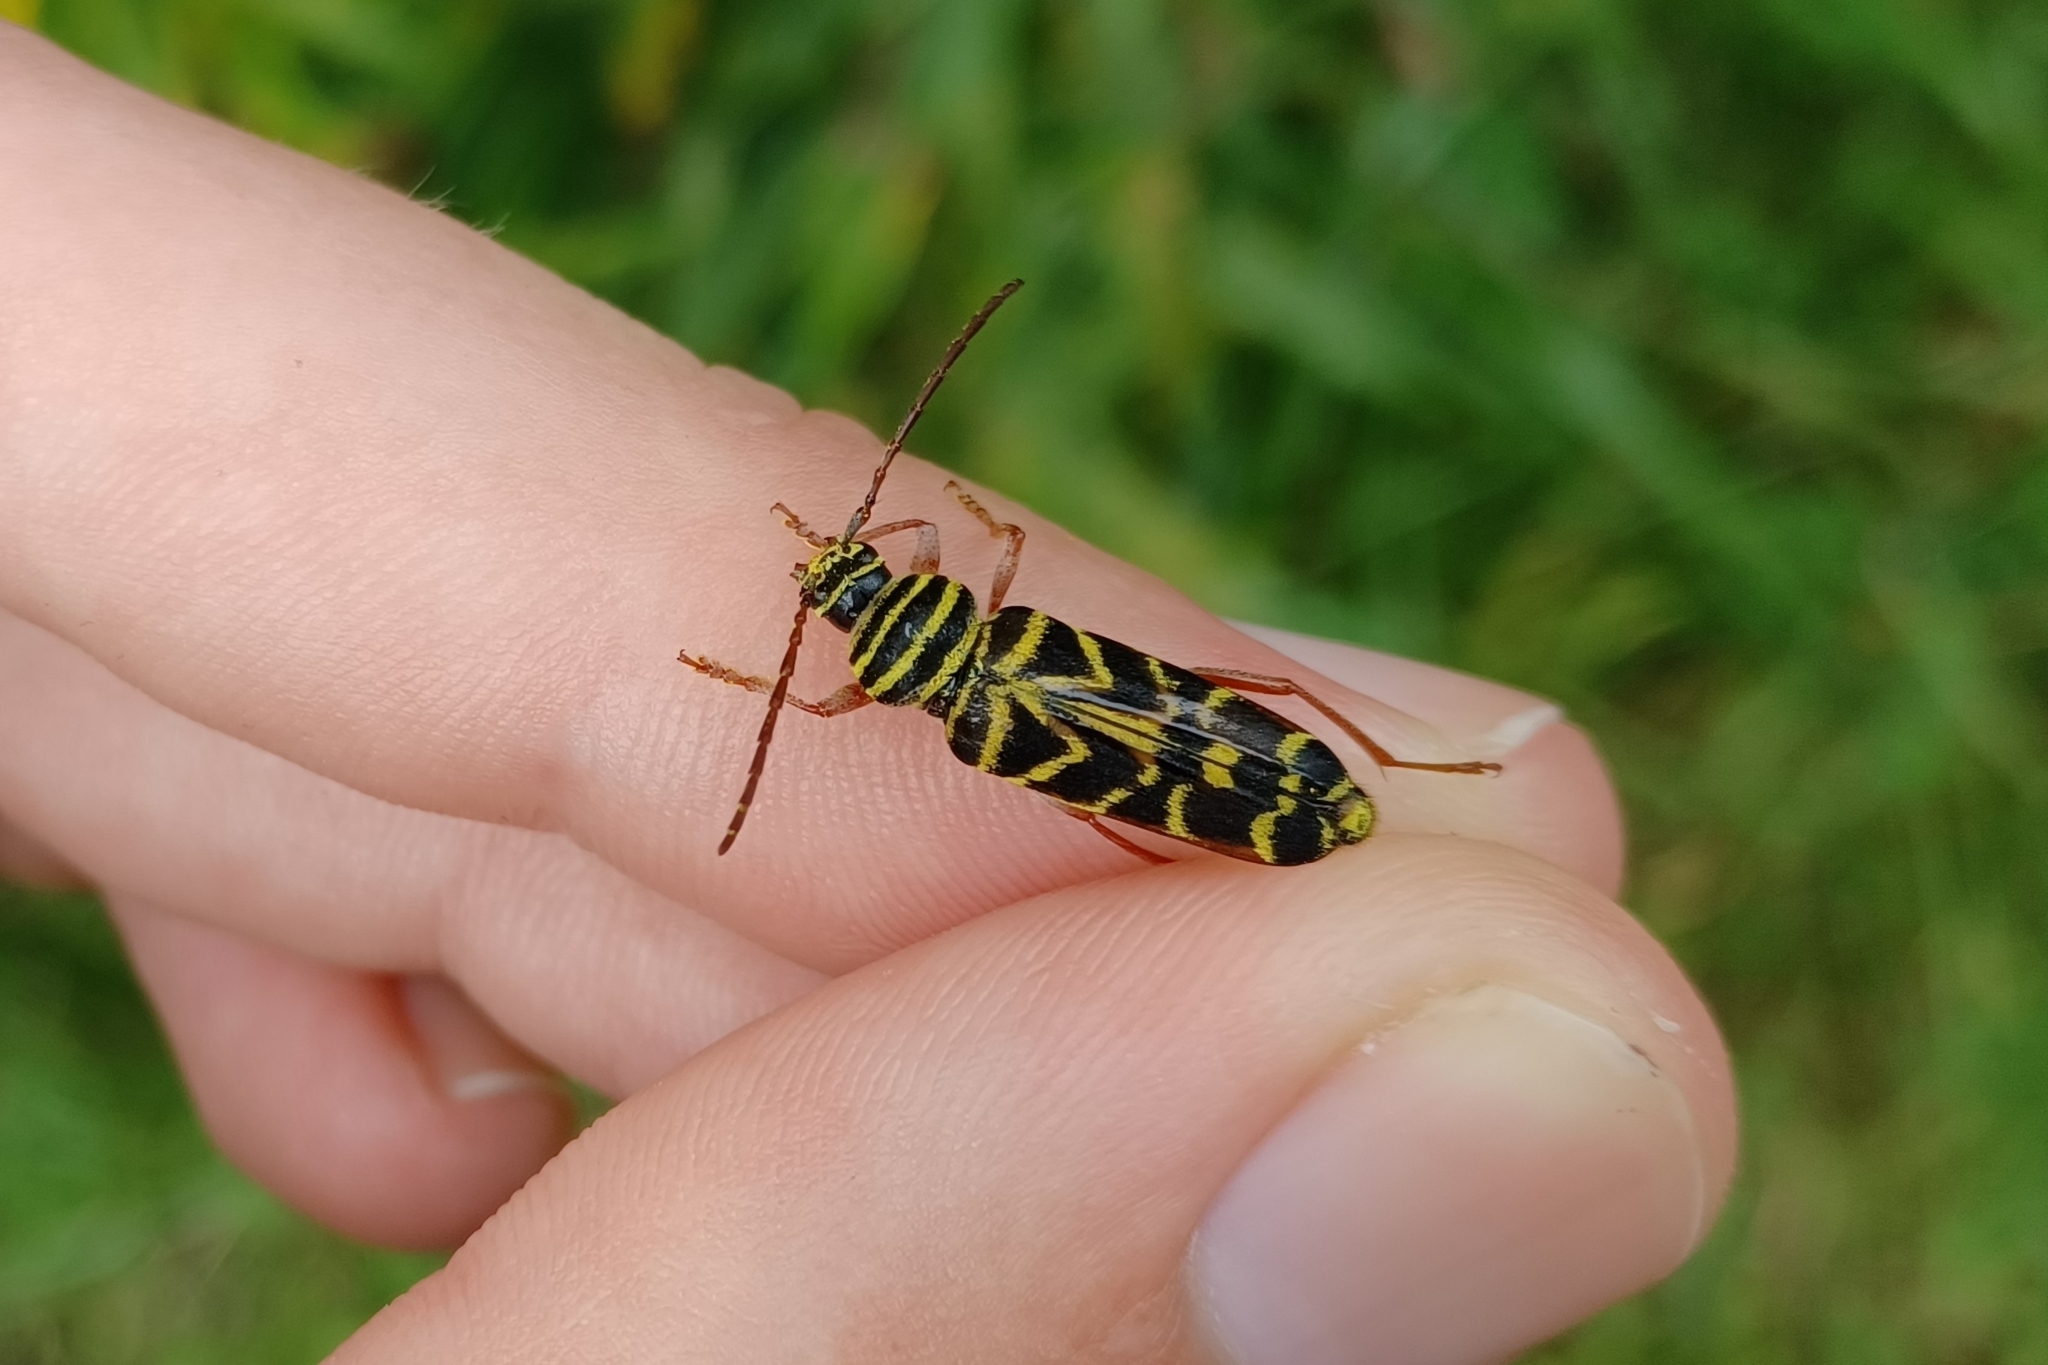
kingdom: Animalia
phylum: Arthropoda
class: Insecta
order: Coleoptera
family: Cerambycidae
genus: Megacyllene
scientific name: Megacyllene robiniae
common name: Locust borer
